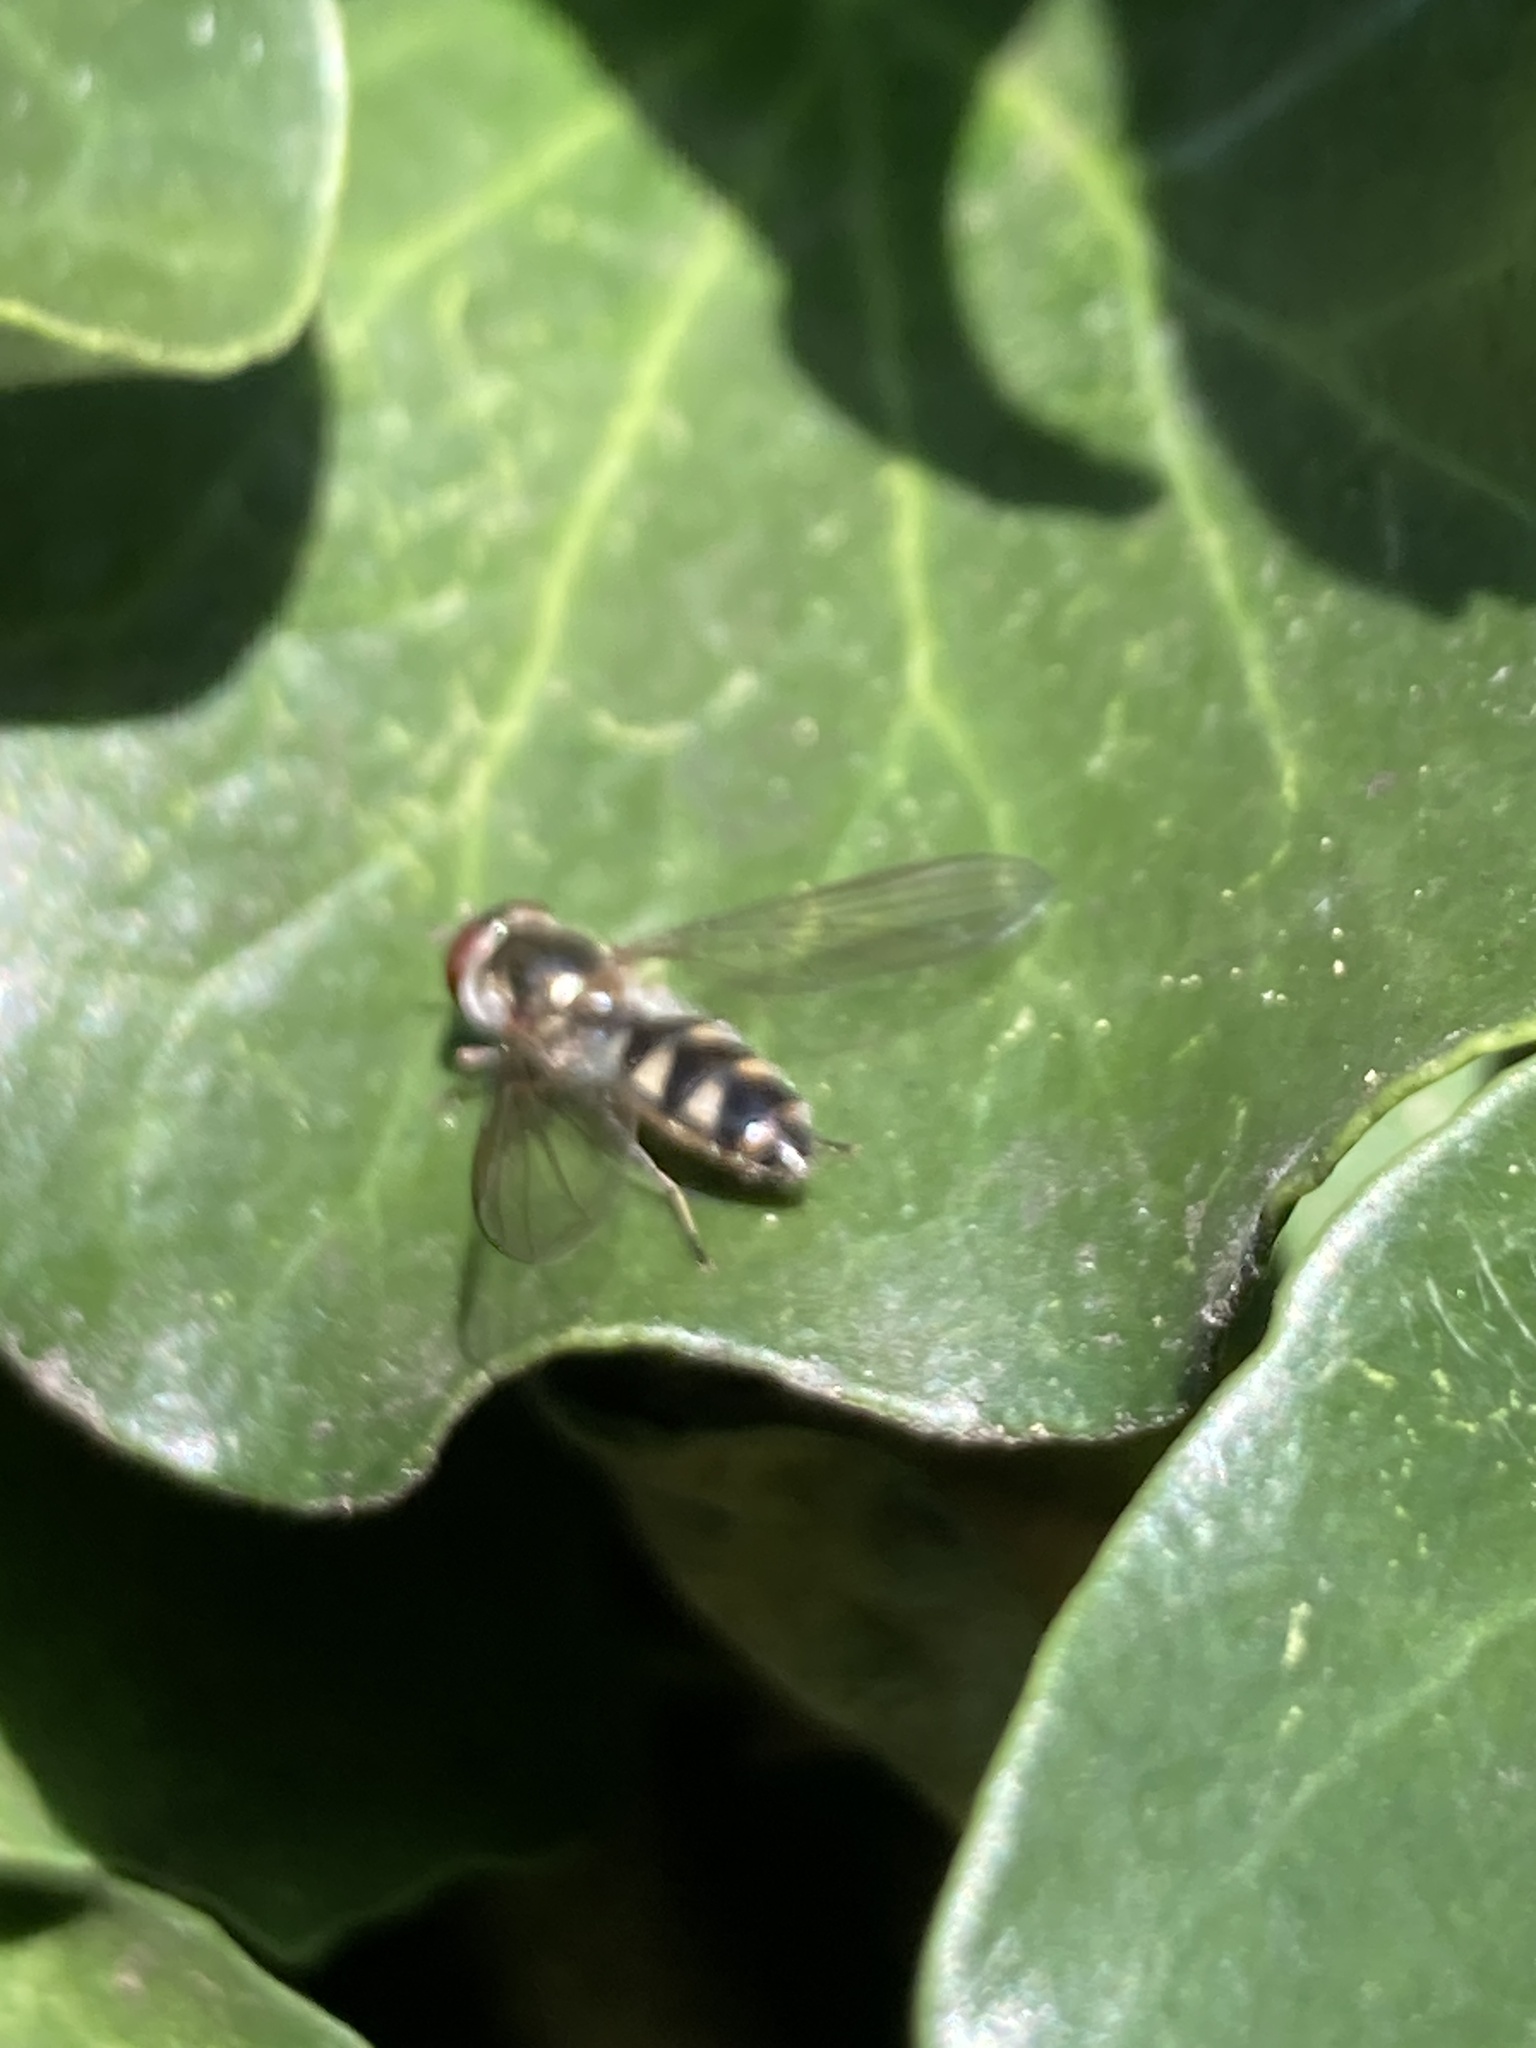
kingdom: Animalia
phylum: Arthropoda
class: Insecta
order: Diptera
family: Syrphidae
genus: Meliscaeva
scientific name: Meliscaeva auricollis
